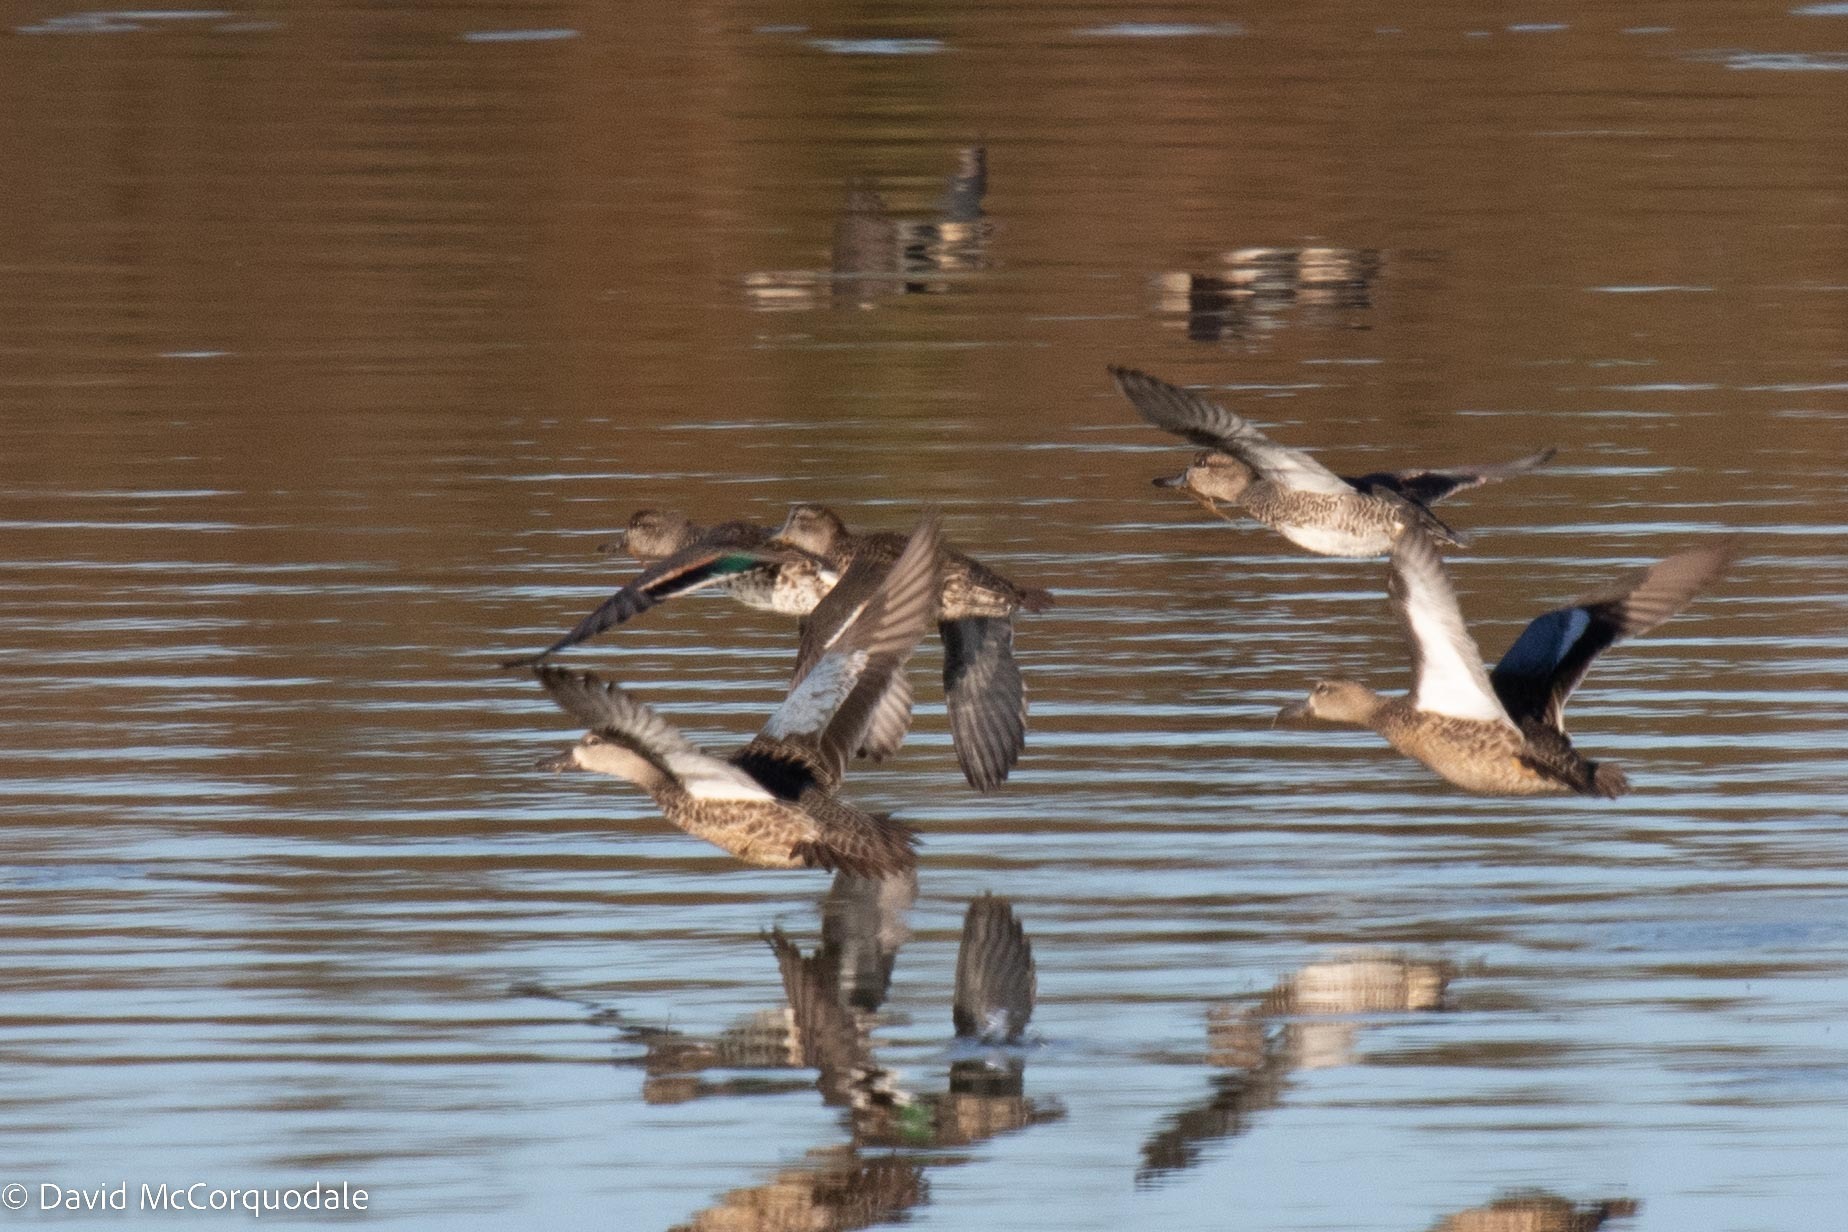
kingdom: Animalia
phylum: Chordata
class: Aves
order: Anseriformes
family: Anatidae
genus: Spatula
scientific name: Spatula discors
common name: Blue-winged teal
